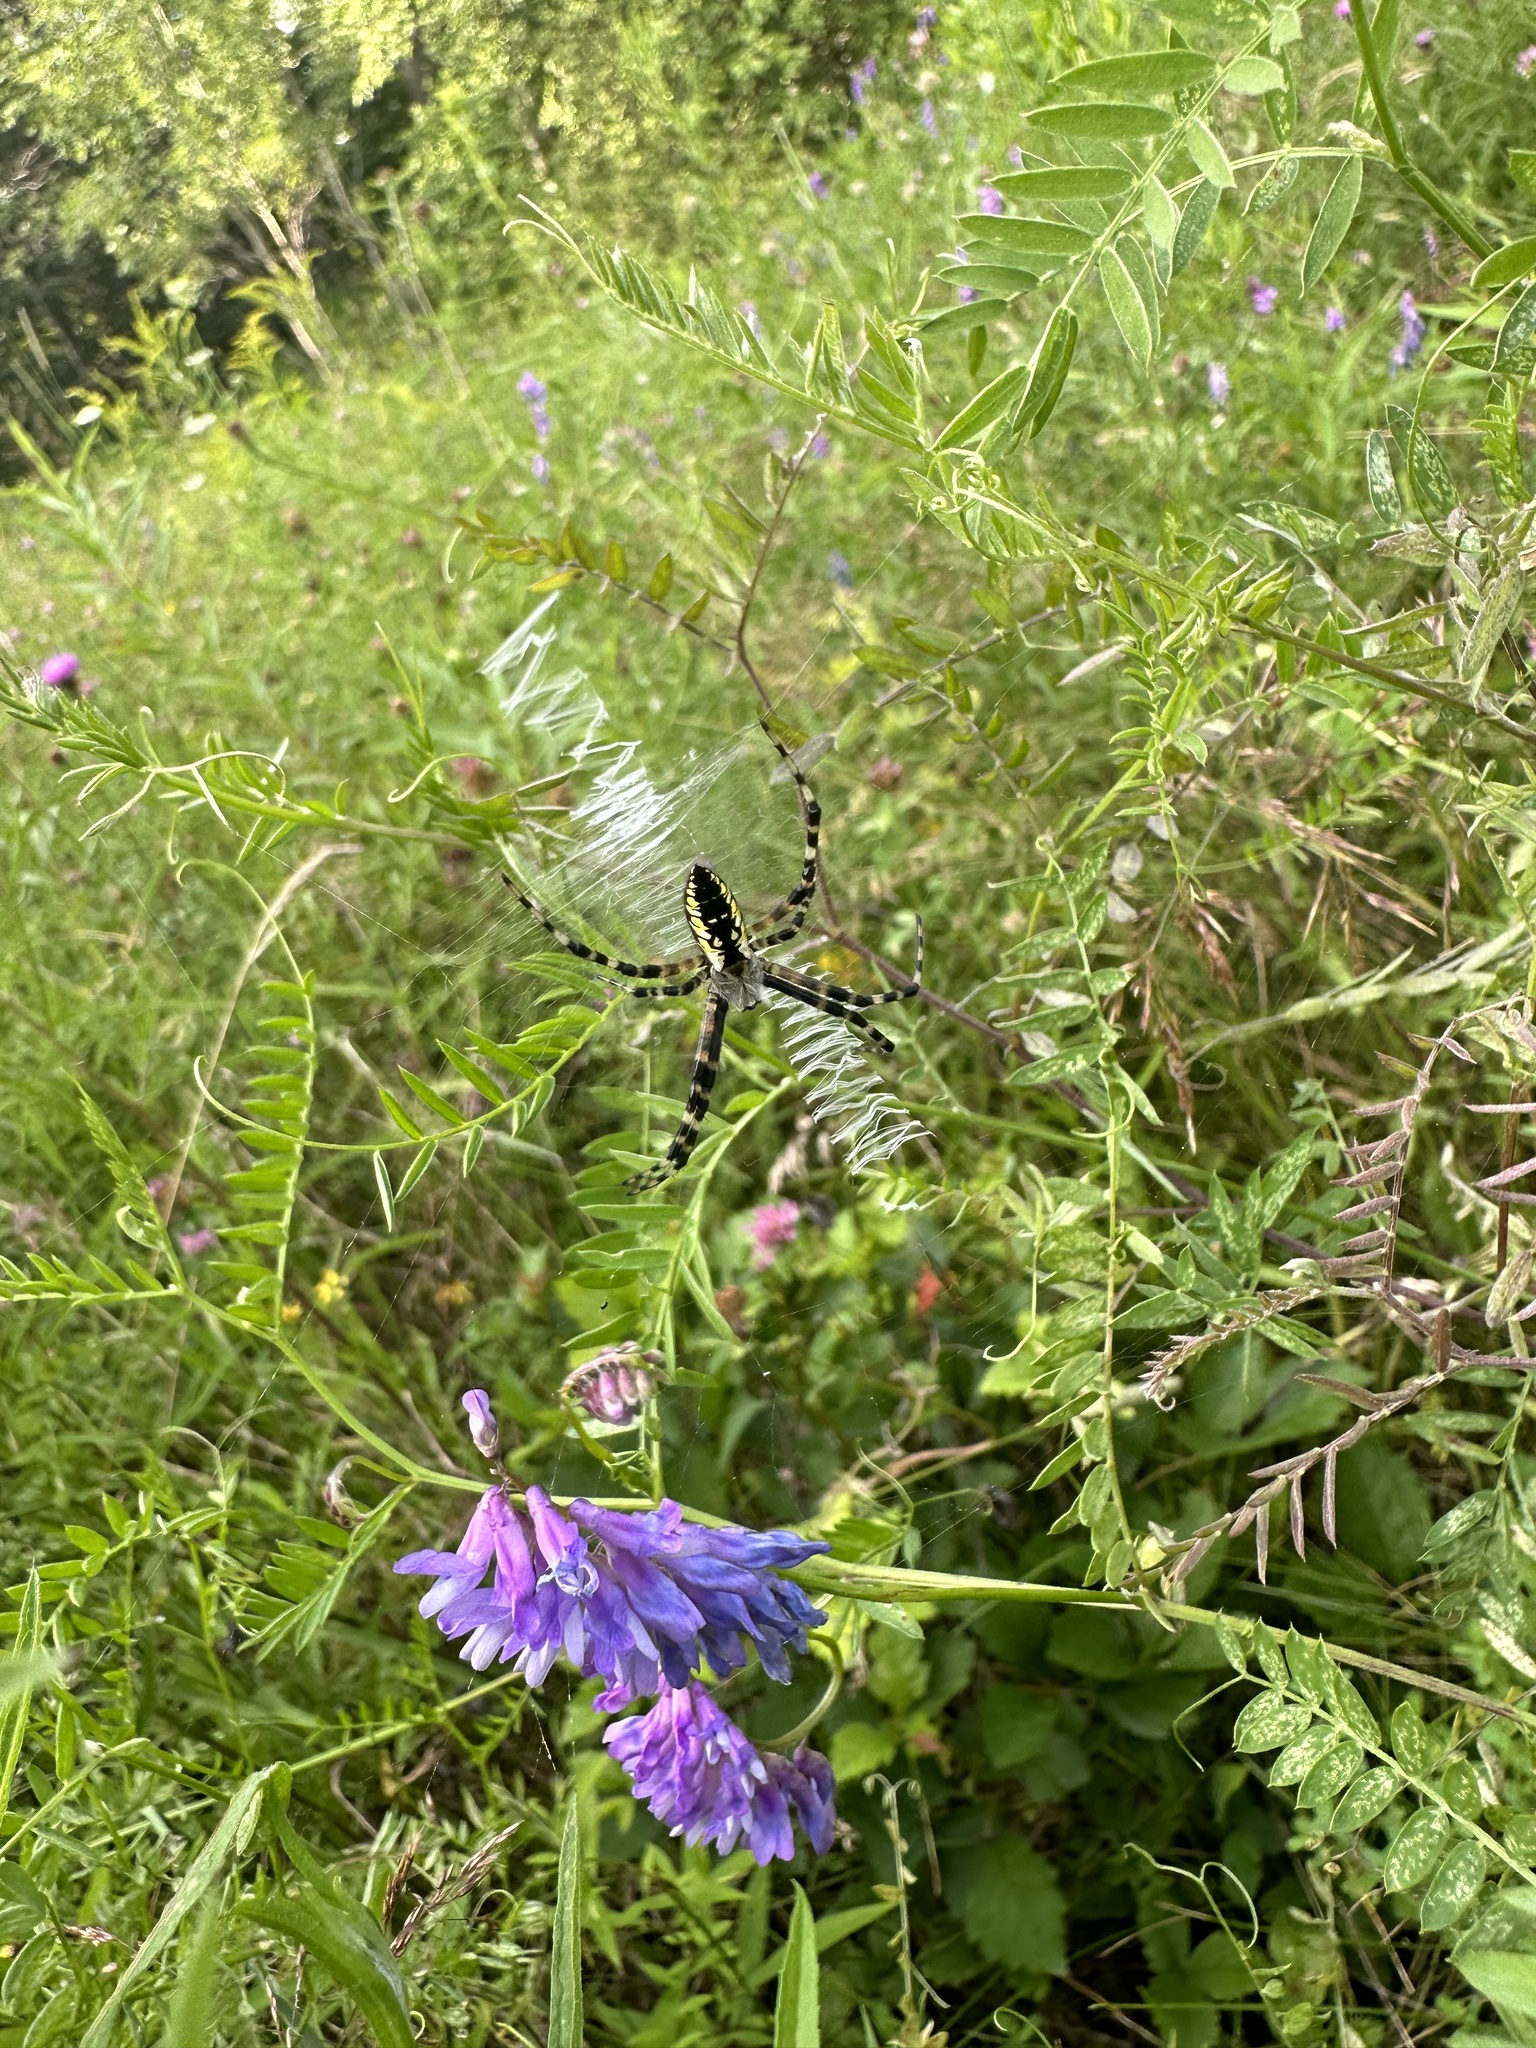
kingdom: Animalia
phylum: Arthropoda
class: Arachnida
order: Araneae
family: Araneidae
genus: Argiope
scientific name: Argiope aurantia
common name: Orb weavers
